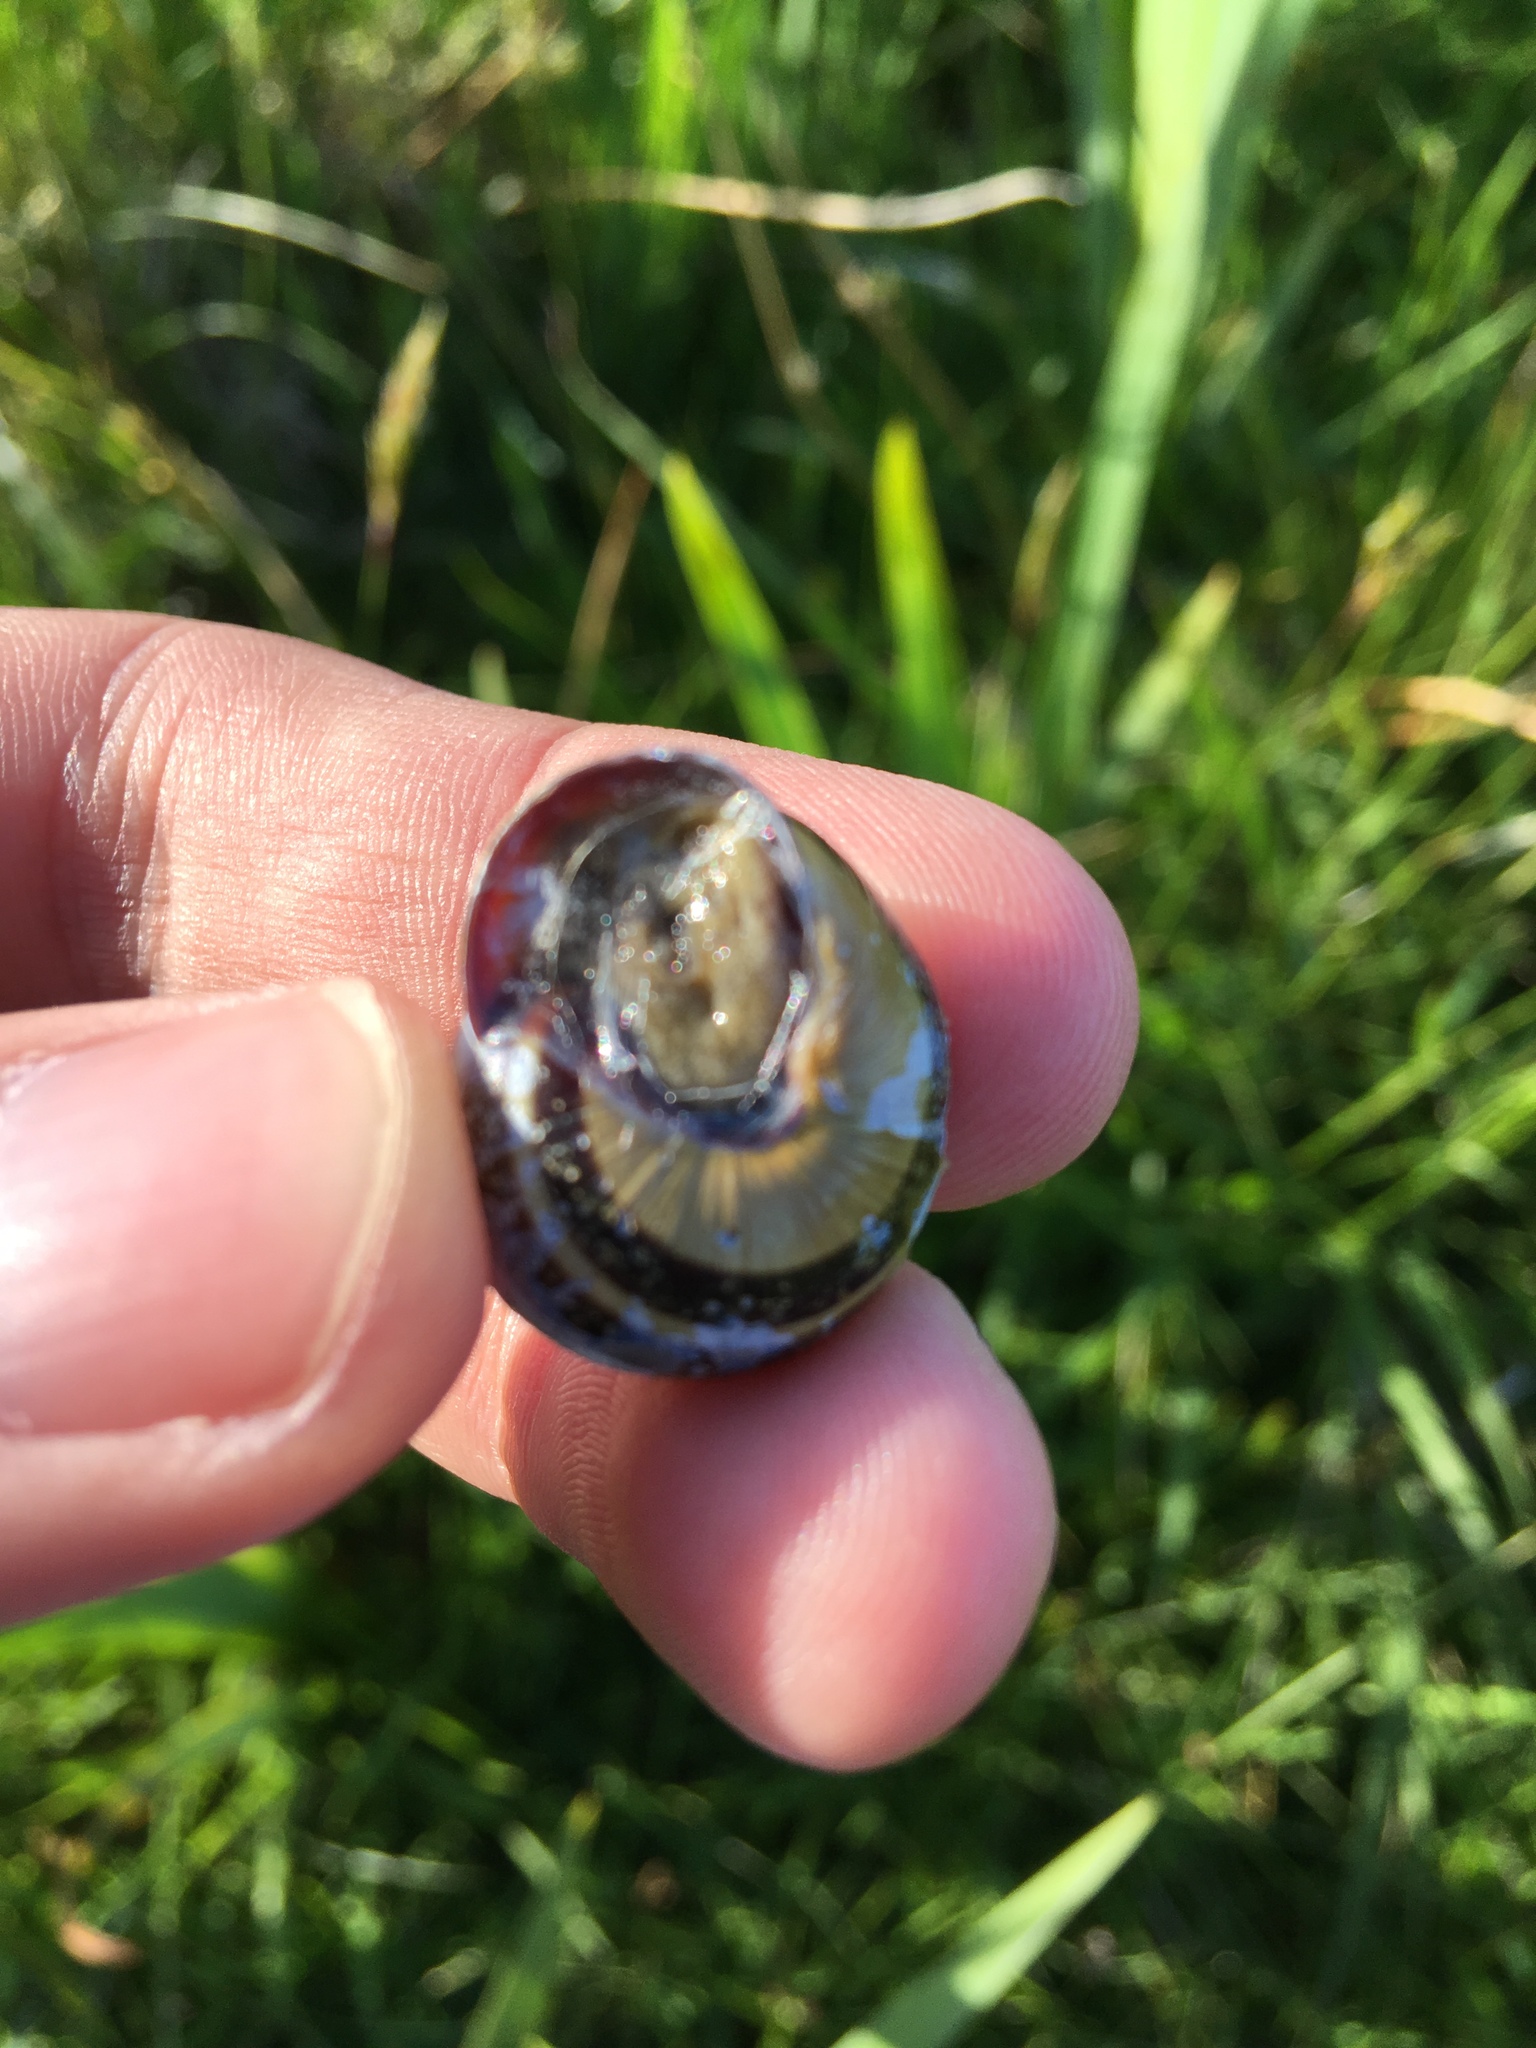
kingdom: Animalia
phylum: Mollusca
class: Gastropoda
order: Stylommatophora
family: Helicidae
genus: Cepaea
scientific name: Cepaea nemoralis
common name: Grovesnail
